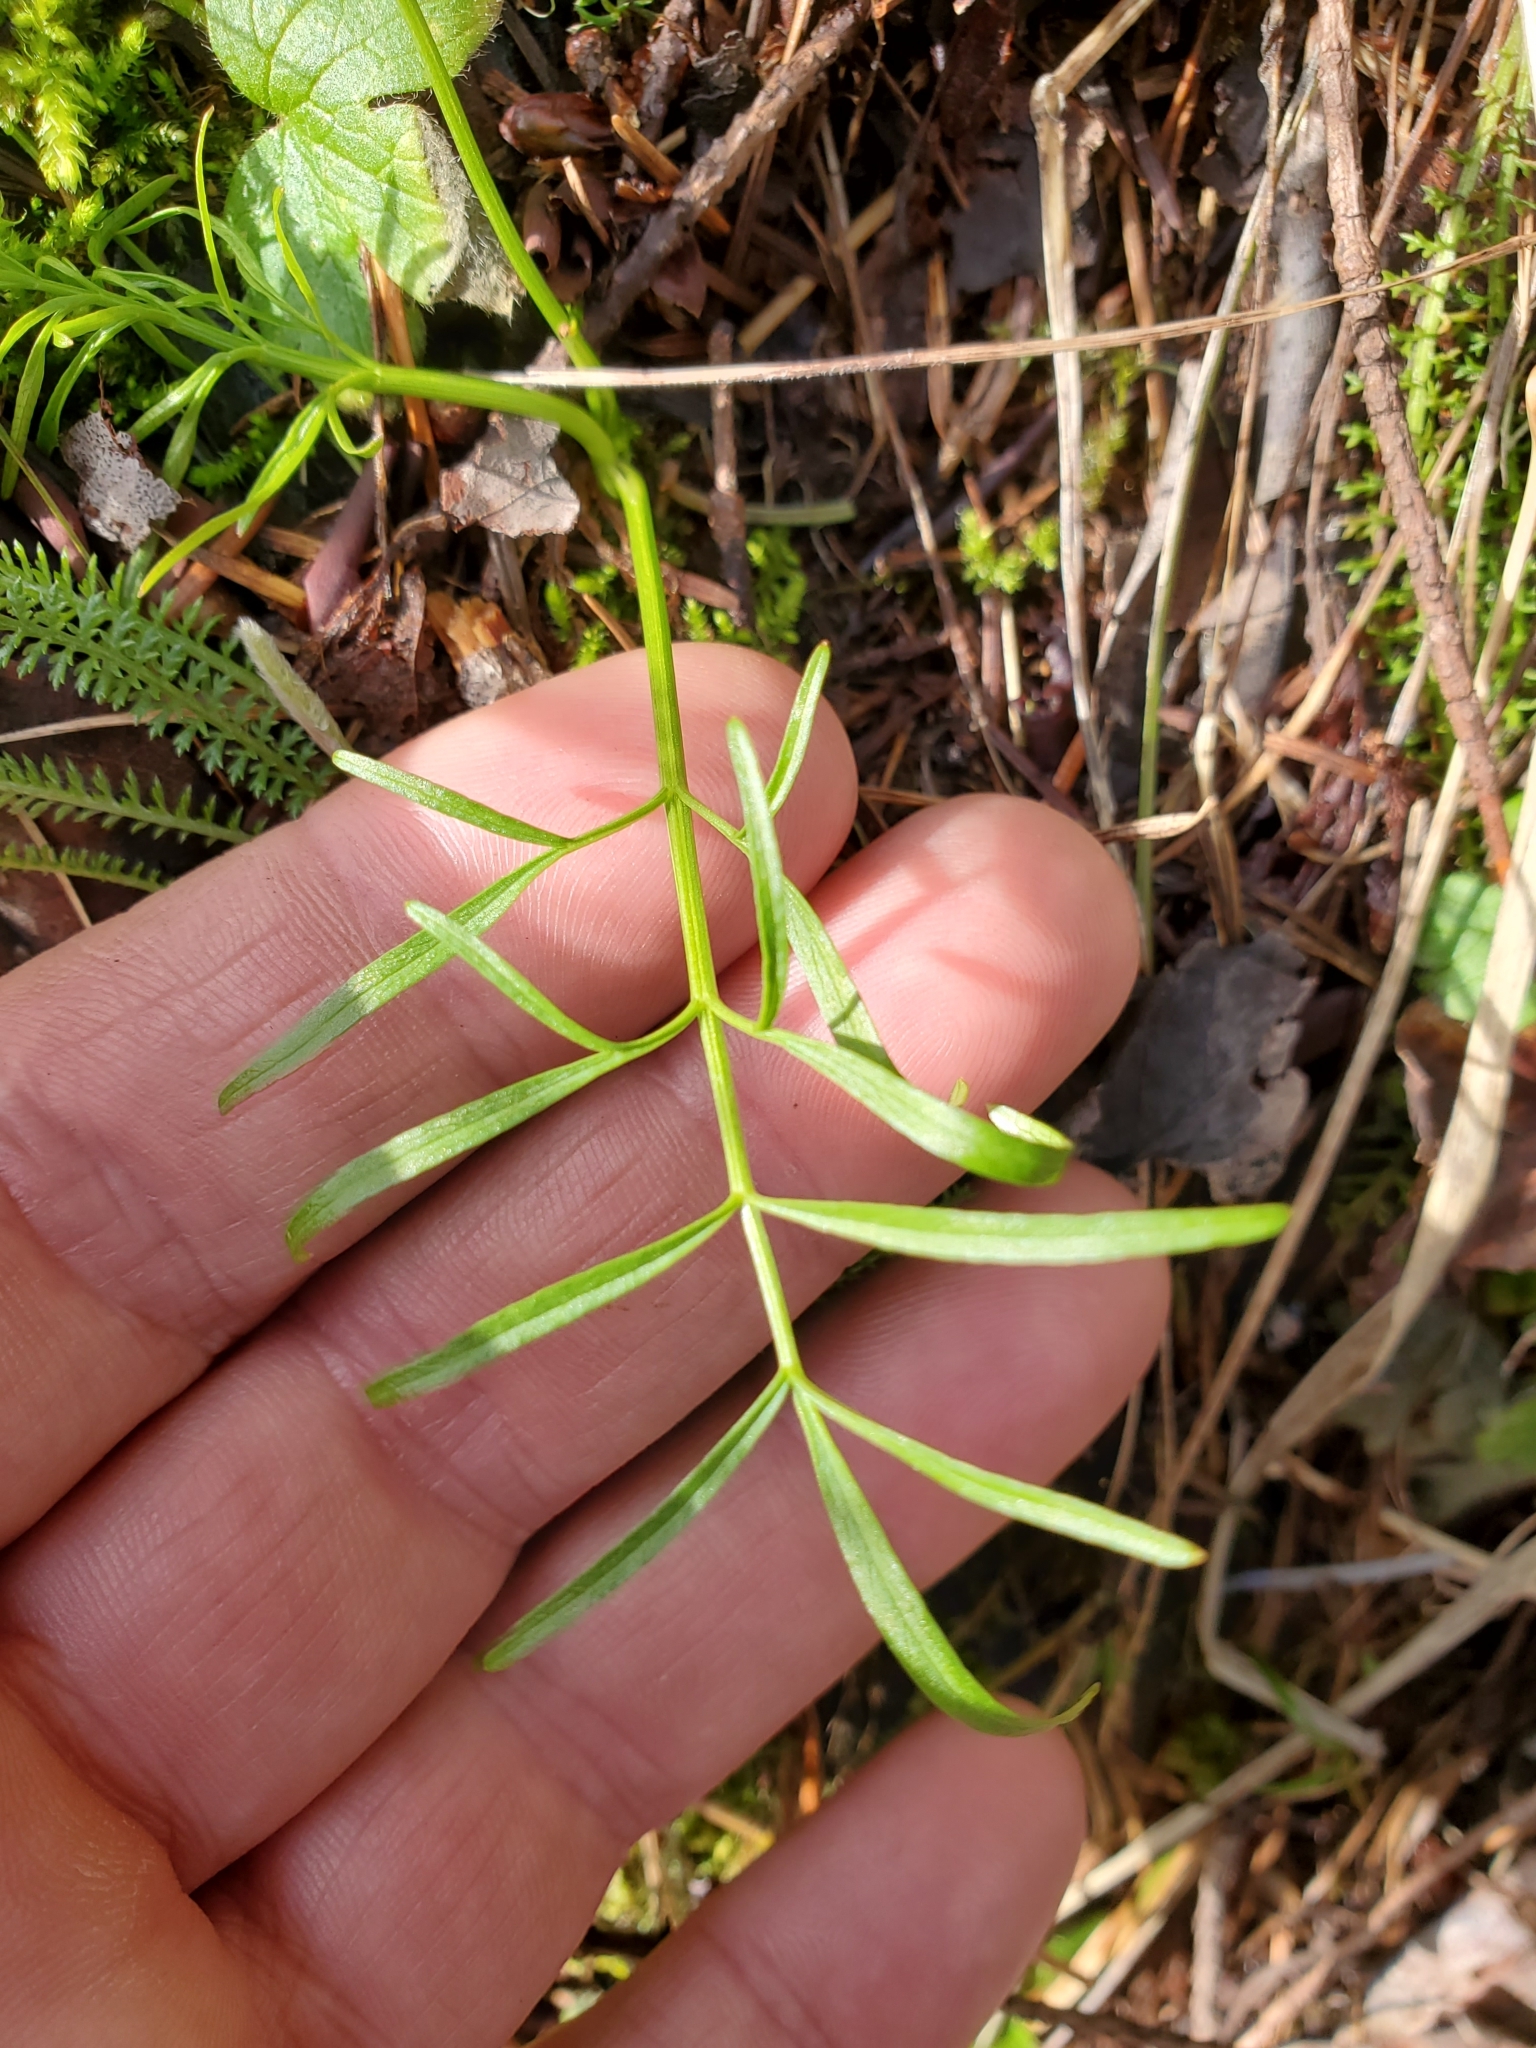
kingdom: Plantae
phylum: Tracheophyta
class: Magnoliopsida
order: Apiales
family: Apiaceae
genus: Perideridia
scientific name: Perideridia gairdneri
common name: False caraway
